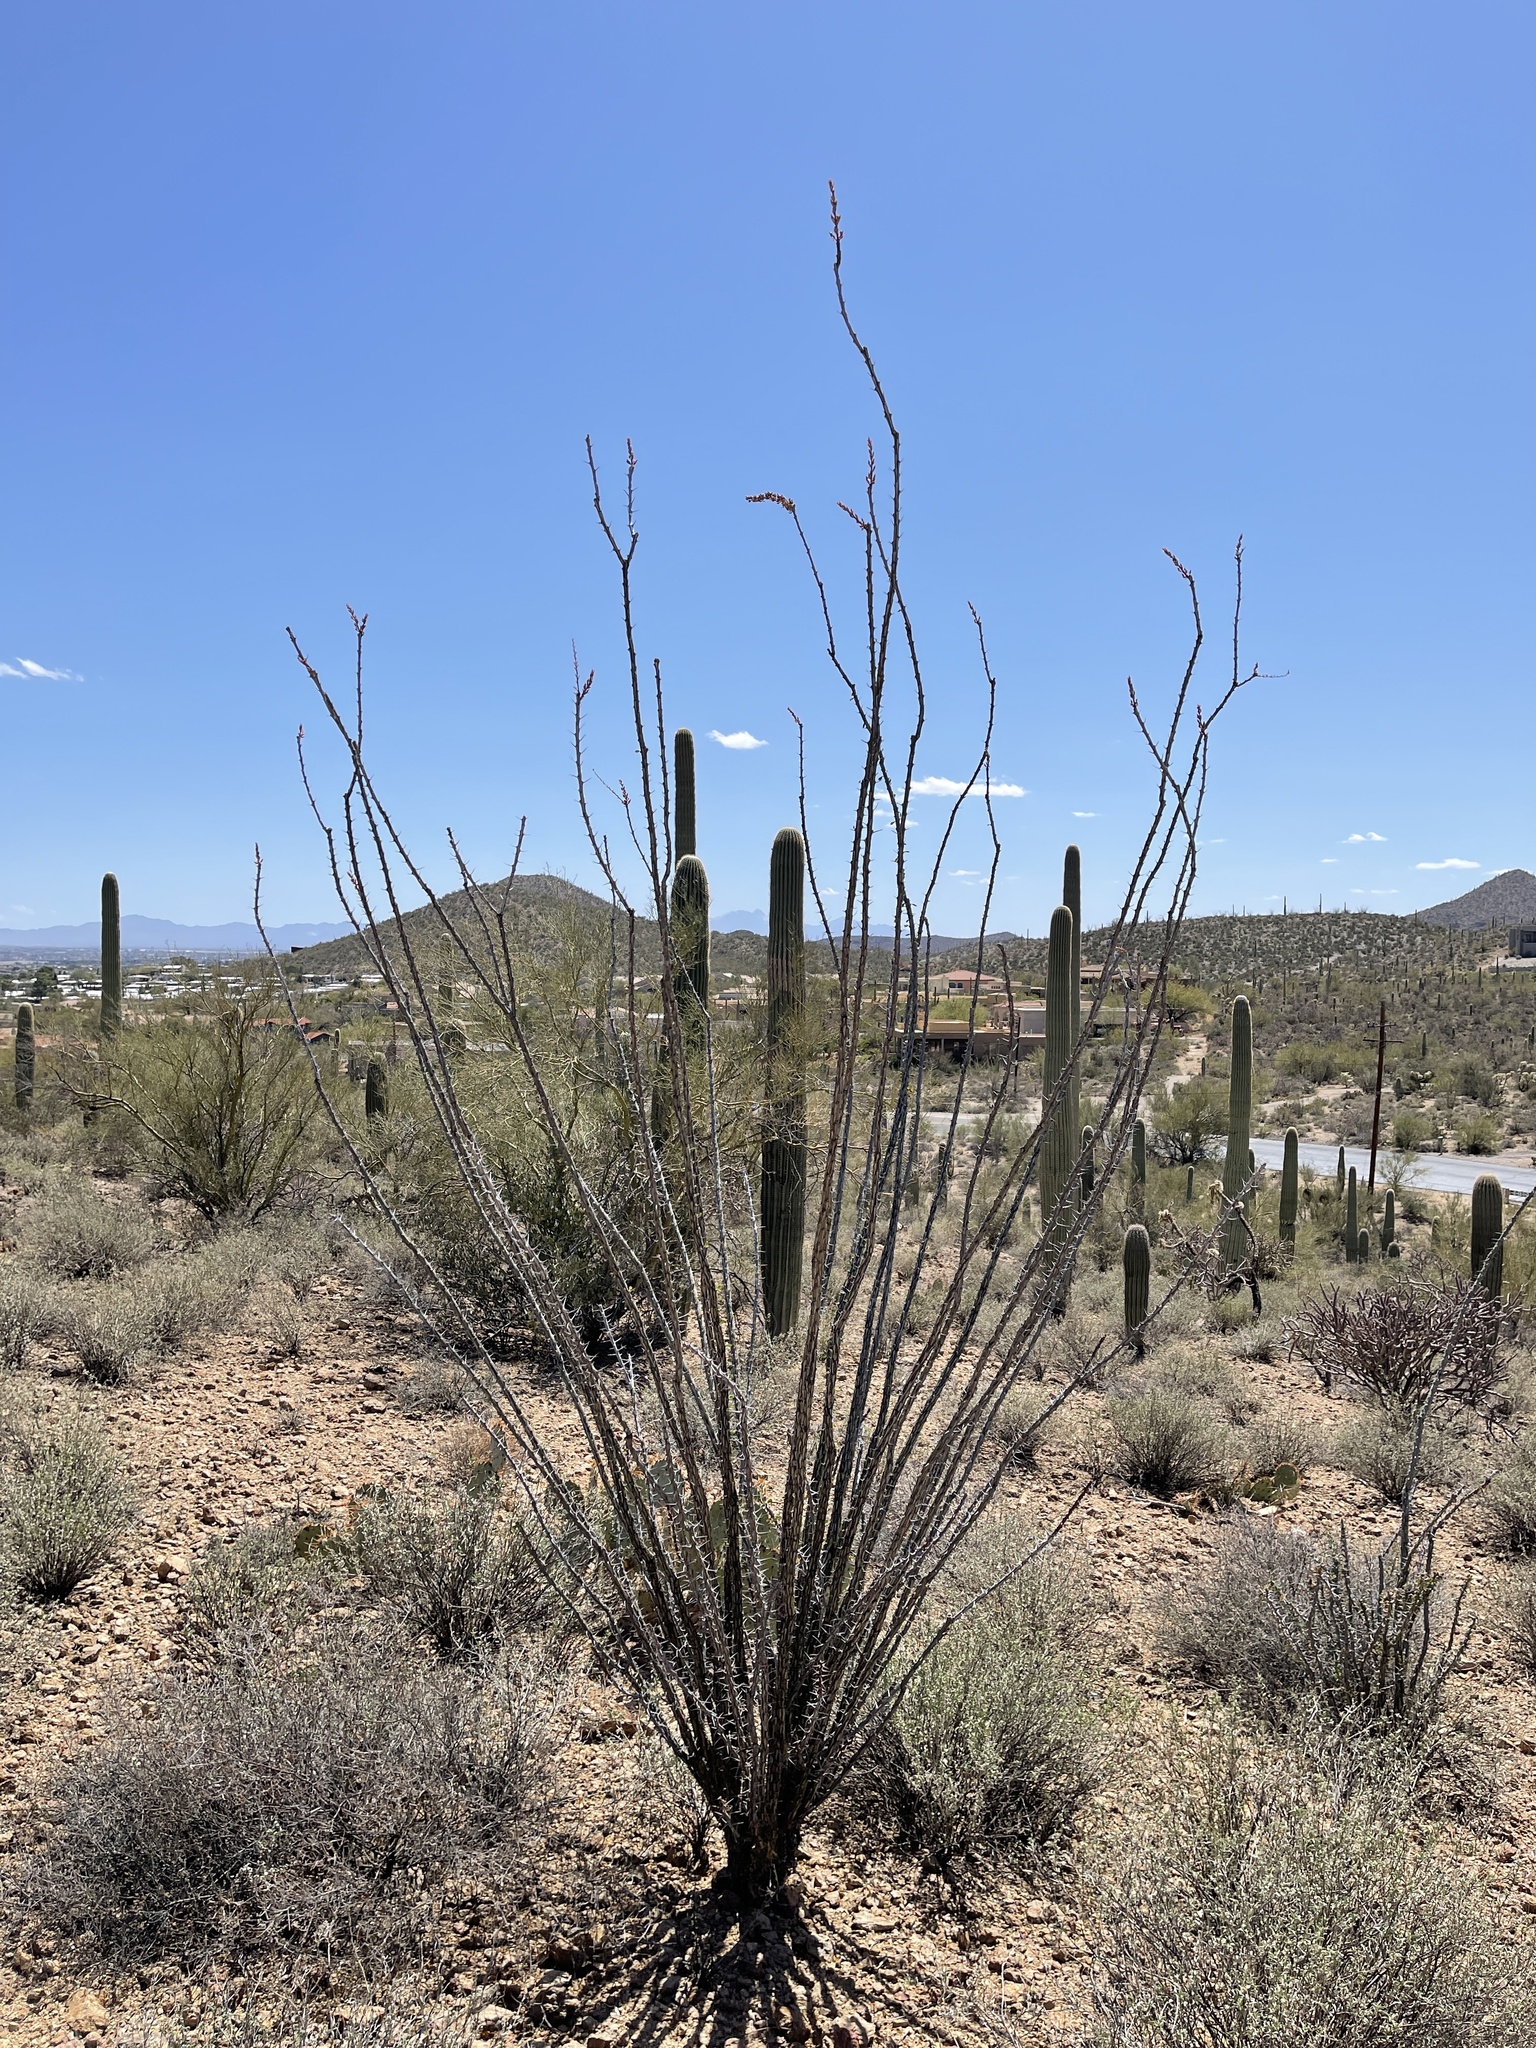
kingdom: Plantae
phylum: Tracheophyta
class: Magnoliopsida
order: Ericales
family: Fouquieriaceae
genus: Fouquieria
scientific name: Fouquieria splendens
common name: Vine-cactus
